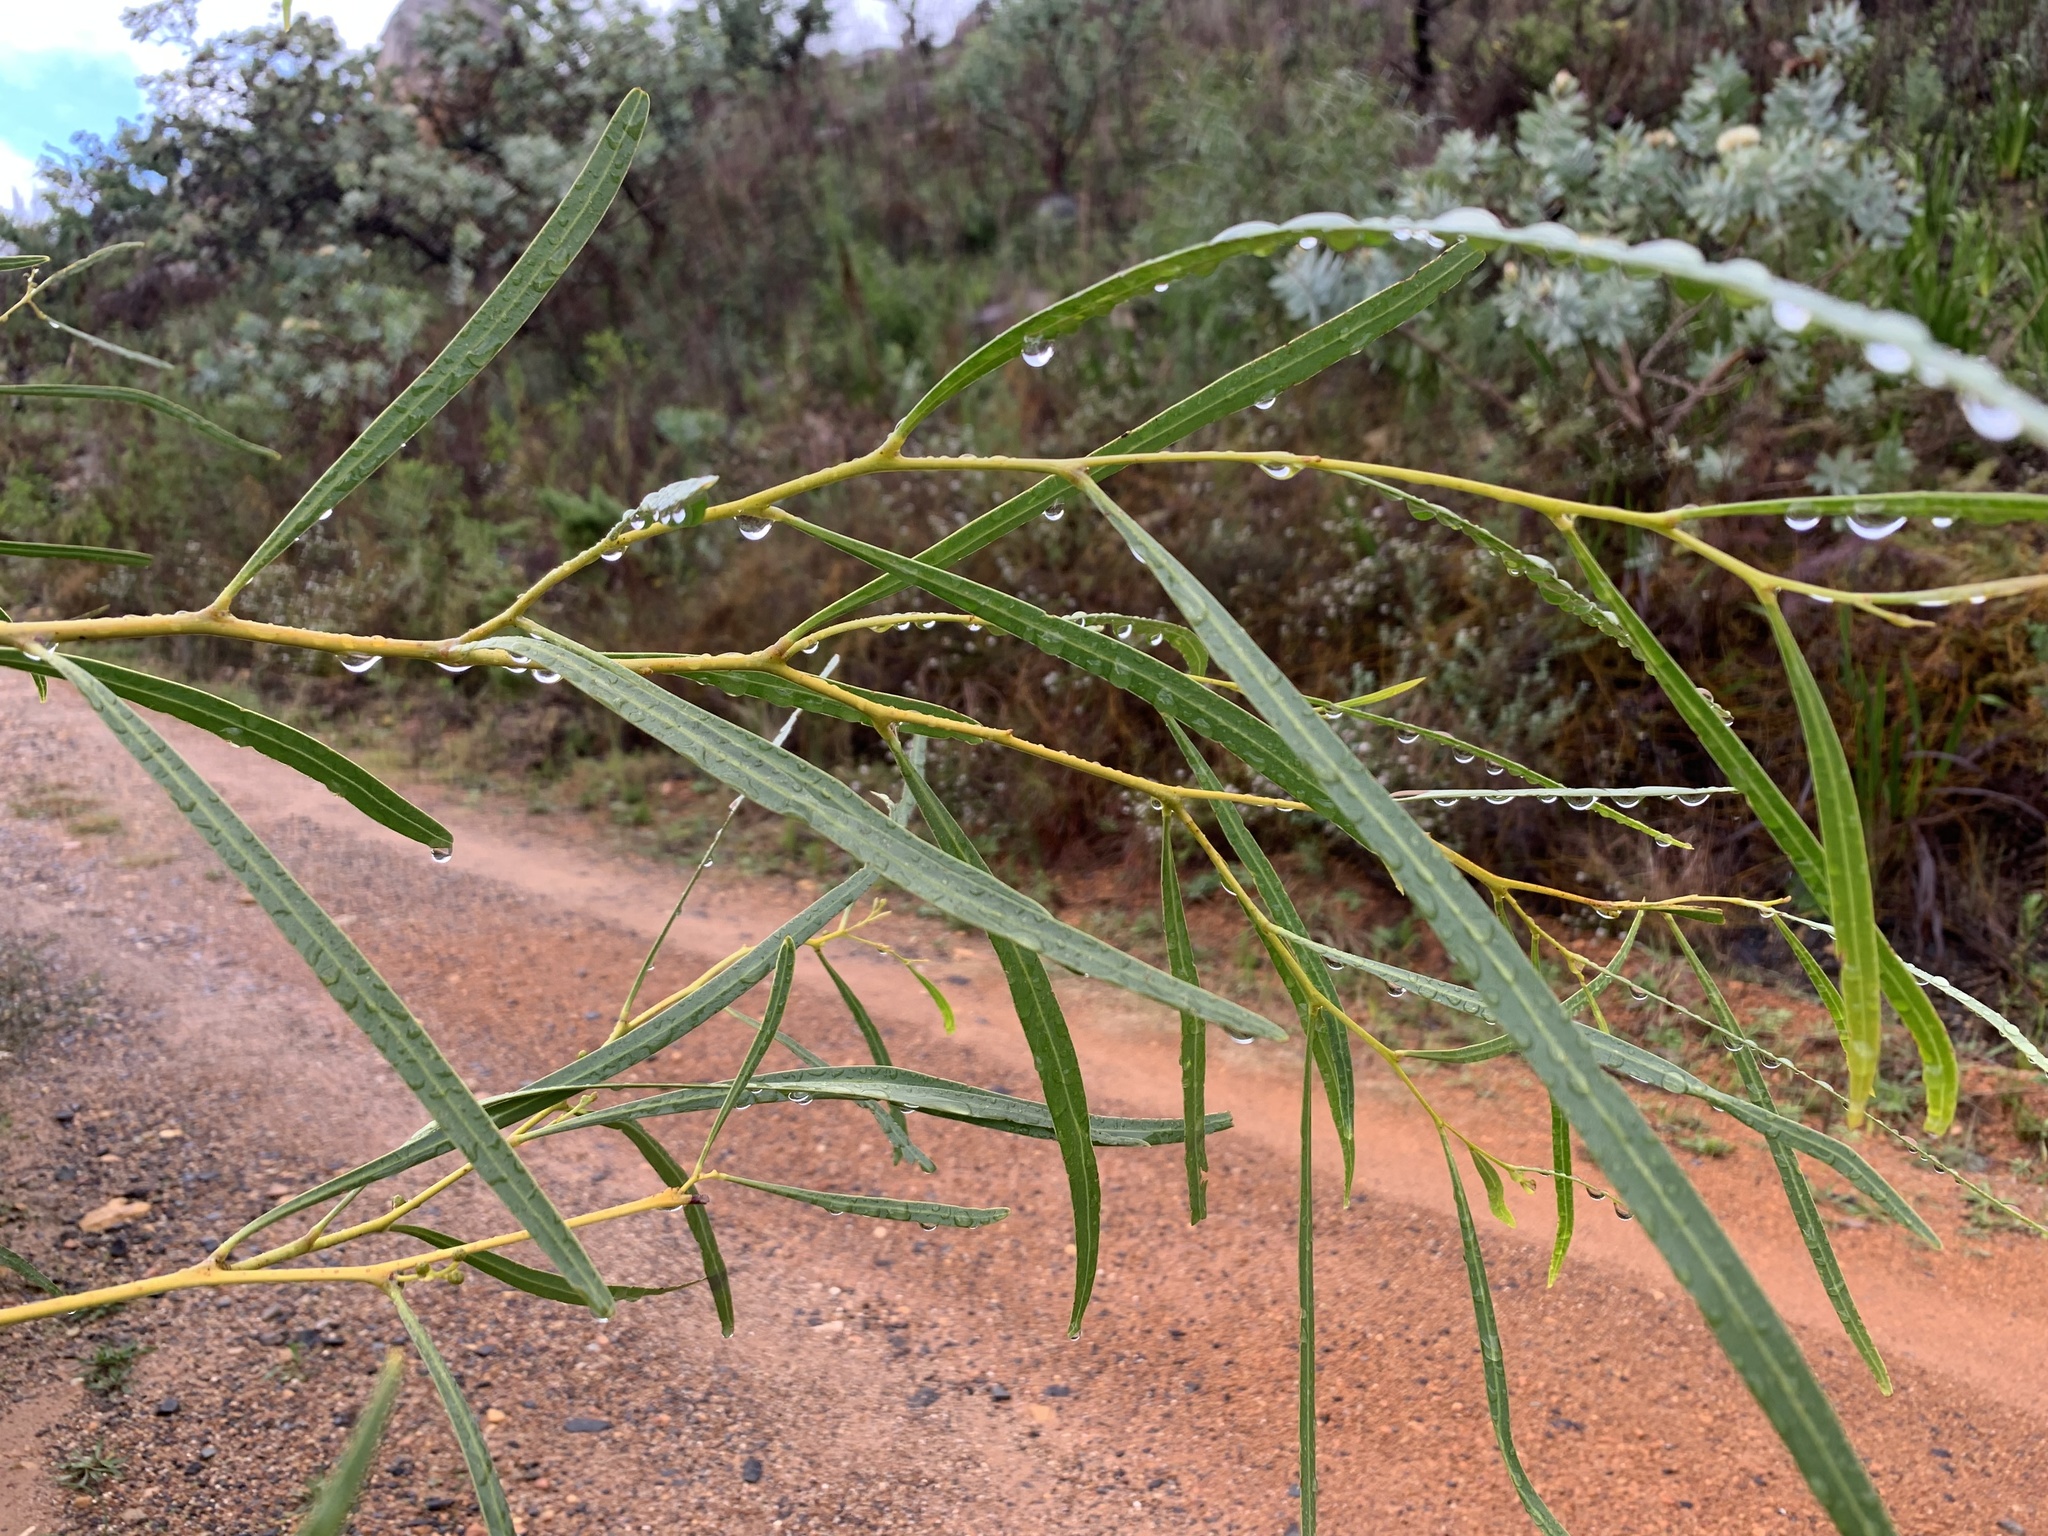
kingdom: Plantae
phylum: Tracheophyta
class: Magnoliopsida
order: Fabales
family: Fabaceae
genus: Acacia
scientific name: Acacia saligna
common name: Orange wattle
